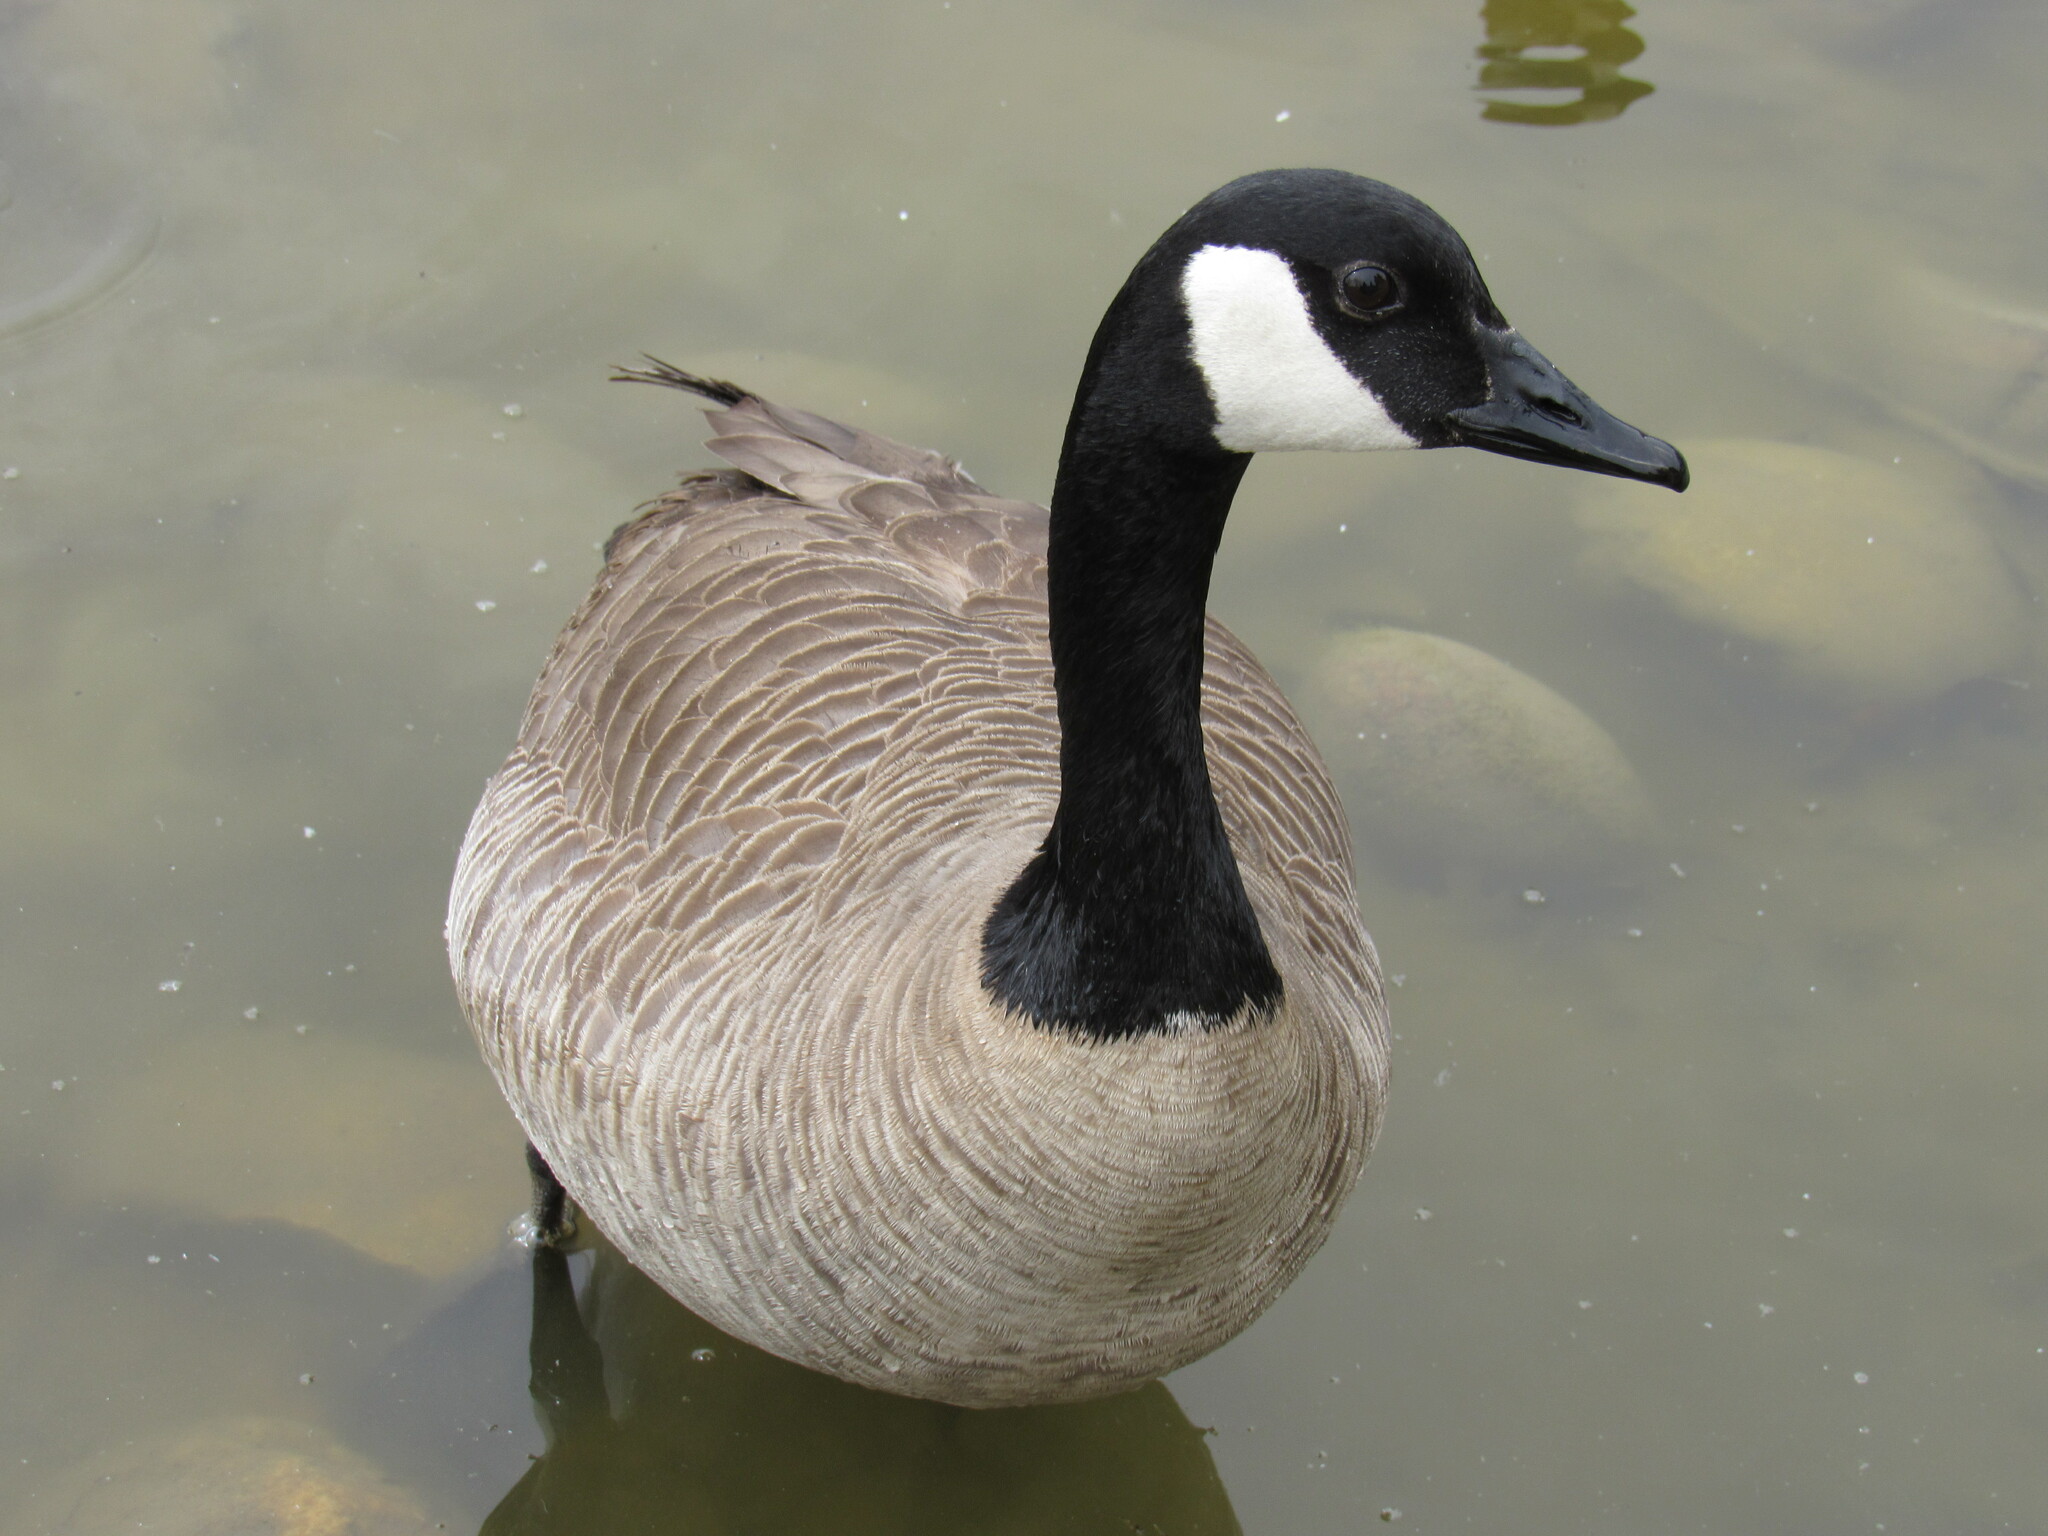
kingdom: Animalia
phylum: Chordata
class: Aves
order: Anseriformes
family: Anatidae
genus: Branta
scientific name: Branta canadensis
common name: Canada goose
